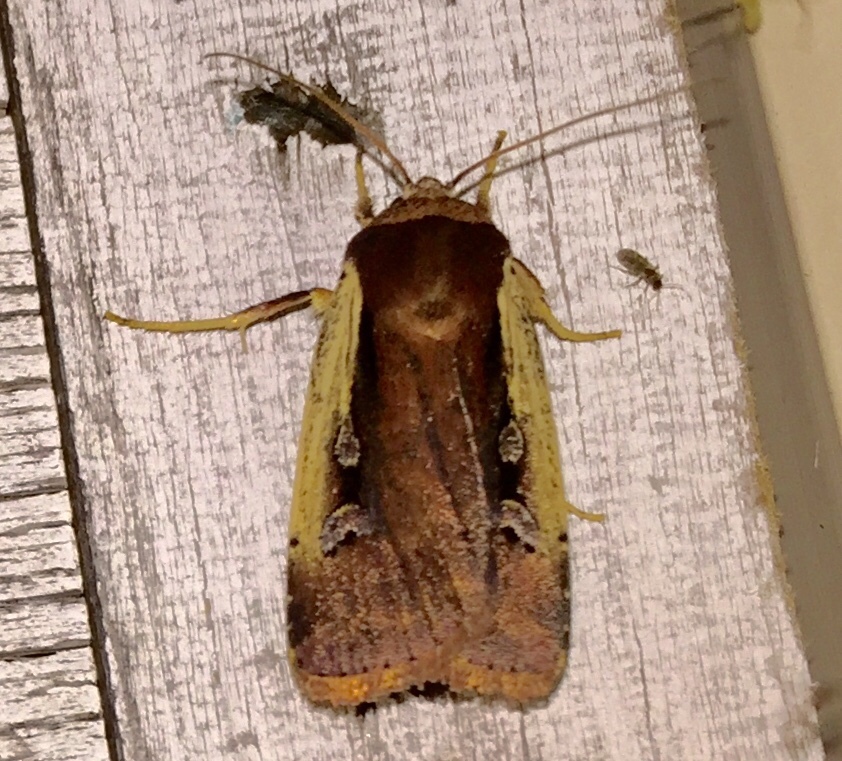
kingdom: Animalia
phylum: Arthropoda
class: Insecta
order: Lepidoptera
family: Noctuidae
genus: Ochropleura
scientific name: Ochropleura implecta
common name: Flame-shouldered dart
